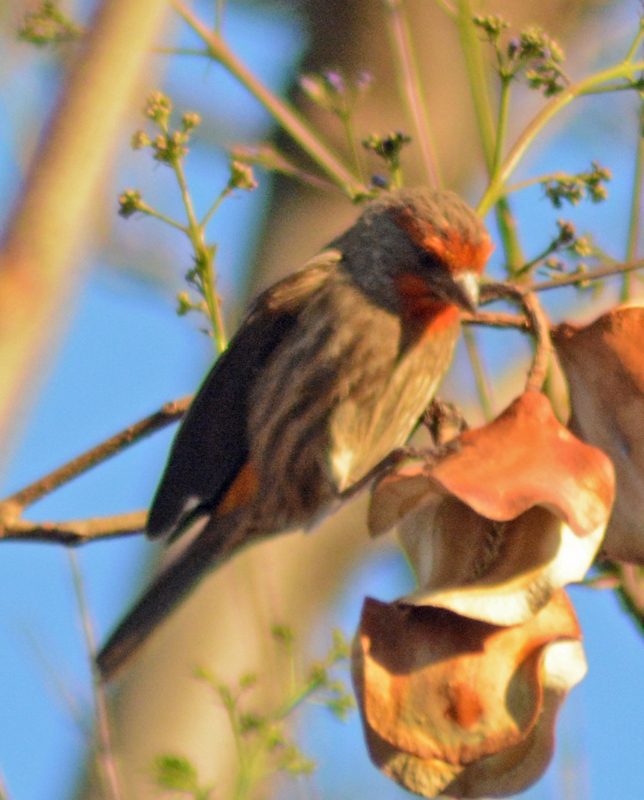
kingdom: Animalia
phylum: Chordata
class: Aves
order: Passeriformes
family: Fringillidae
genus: Haemorhous
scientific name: Haemorhous mexicanus
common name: House finch
